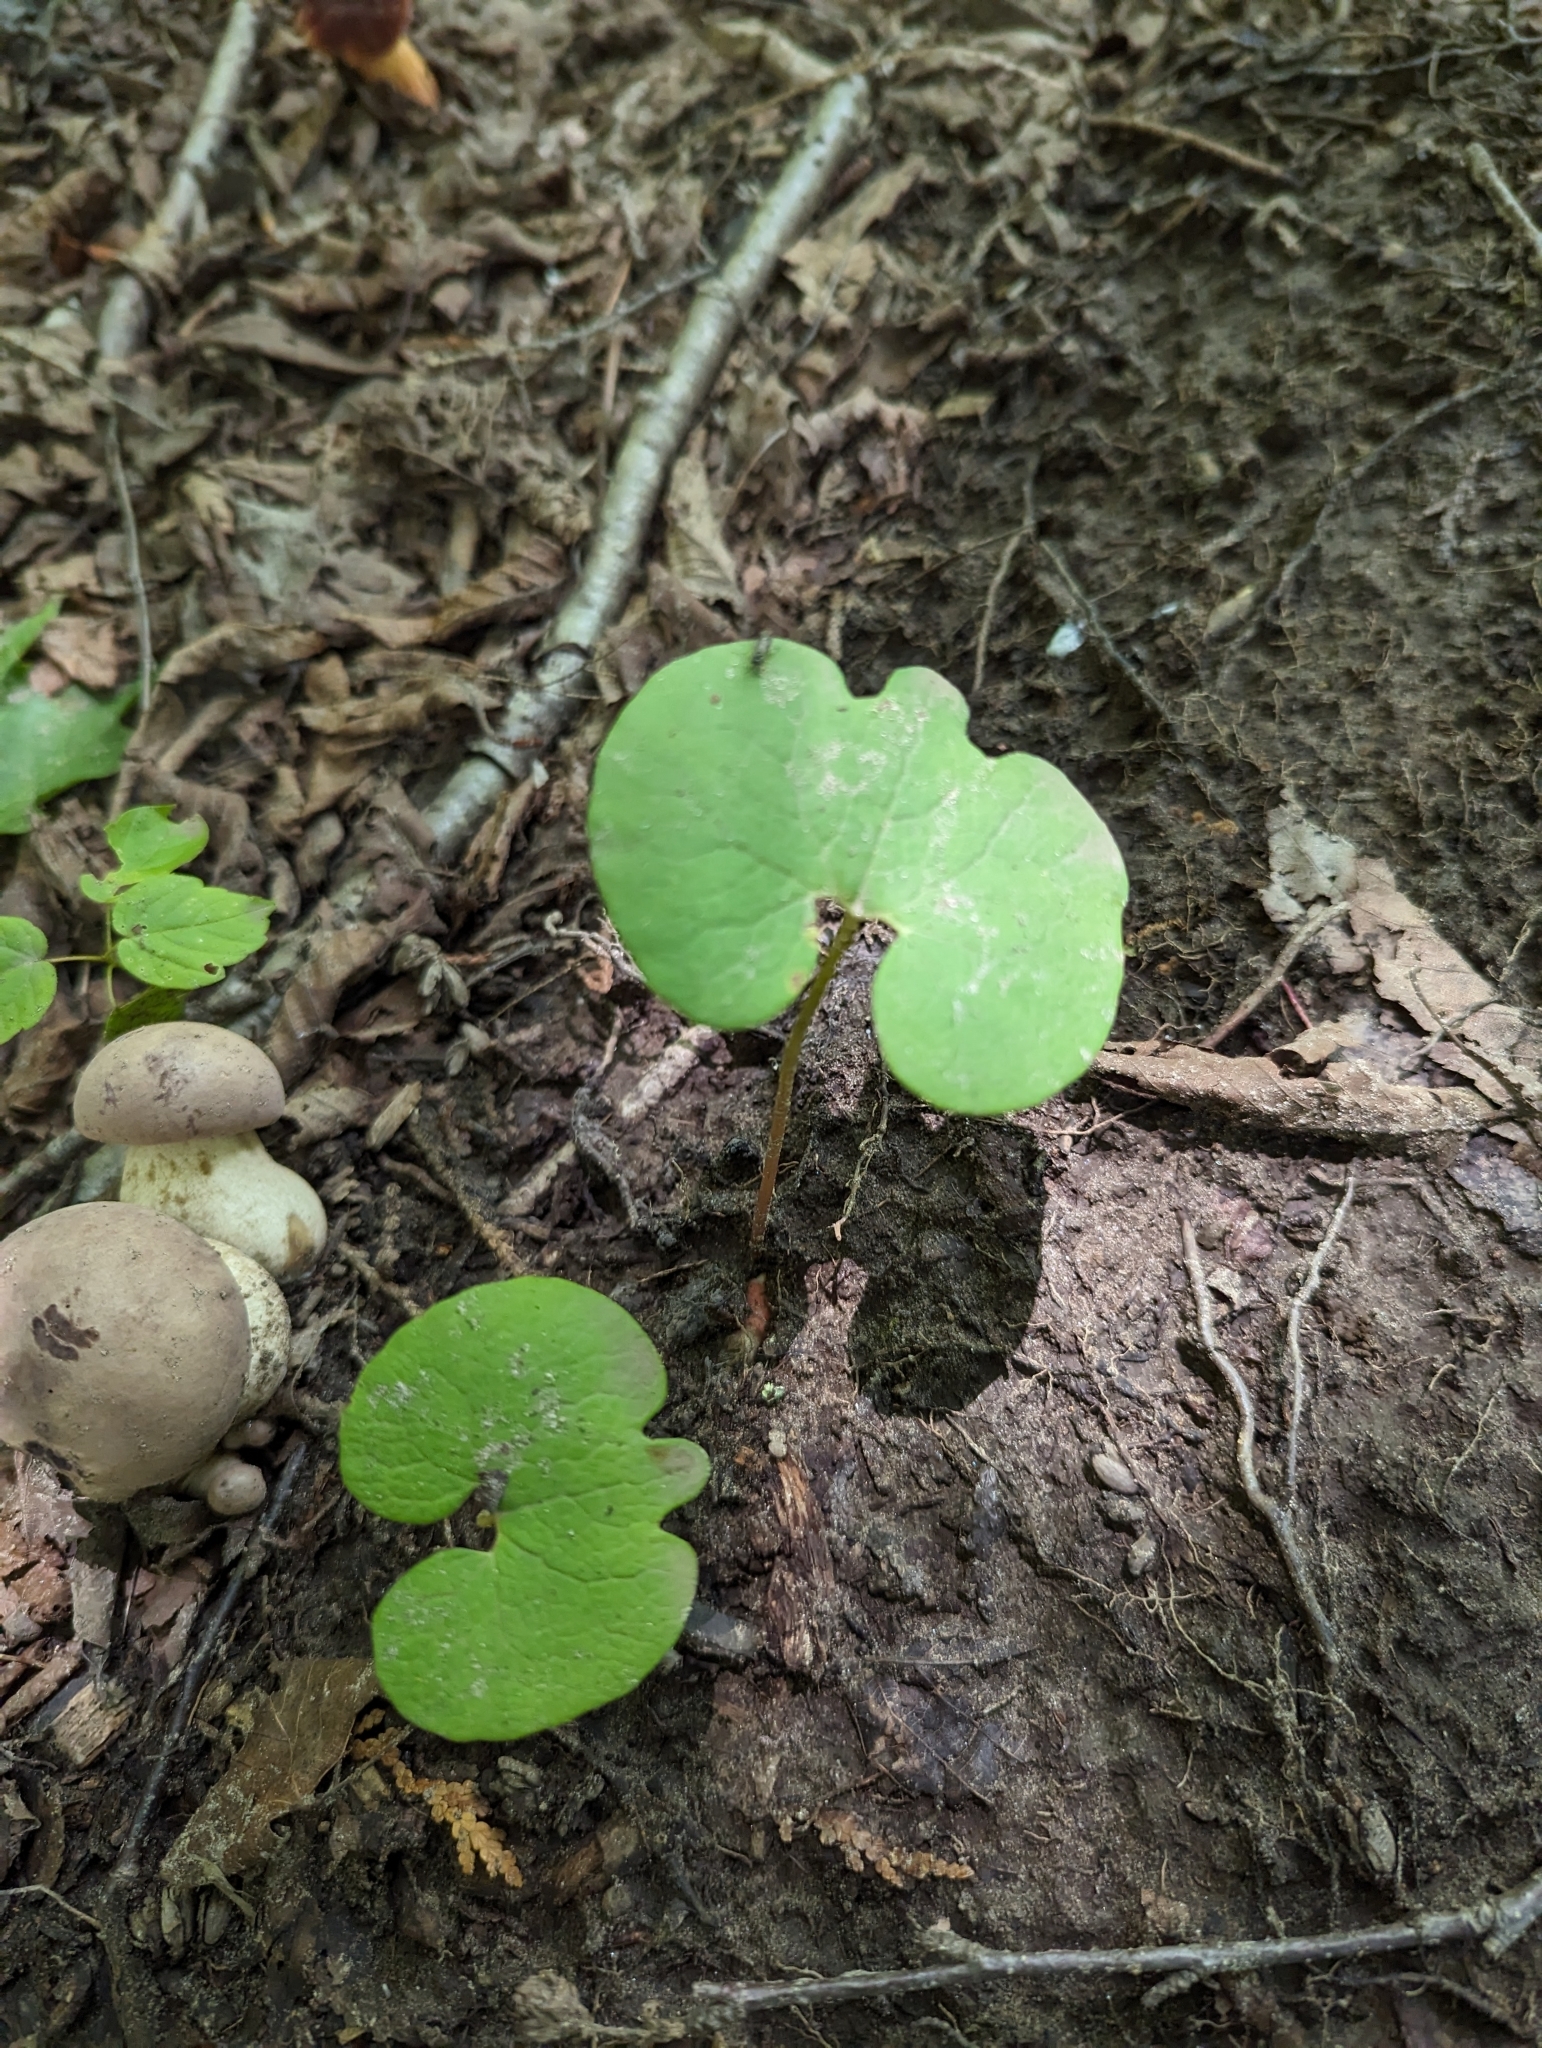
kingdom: Plantae
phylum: Tracheophyta
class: Magnoliopsida
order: Ranunculales
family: Papaveraceae
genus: Sanguinaria
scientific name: Sanguinaria canadensis
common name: Bloodroot
